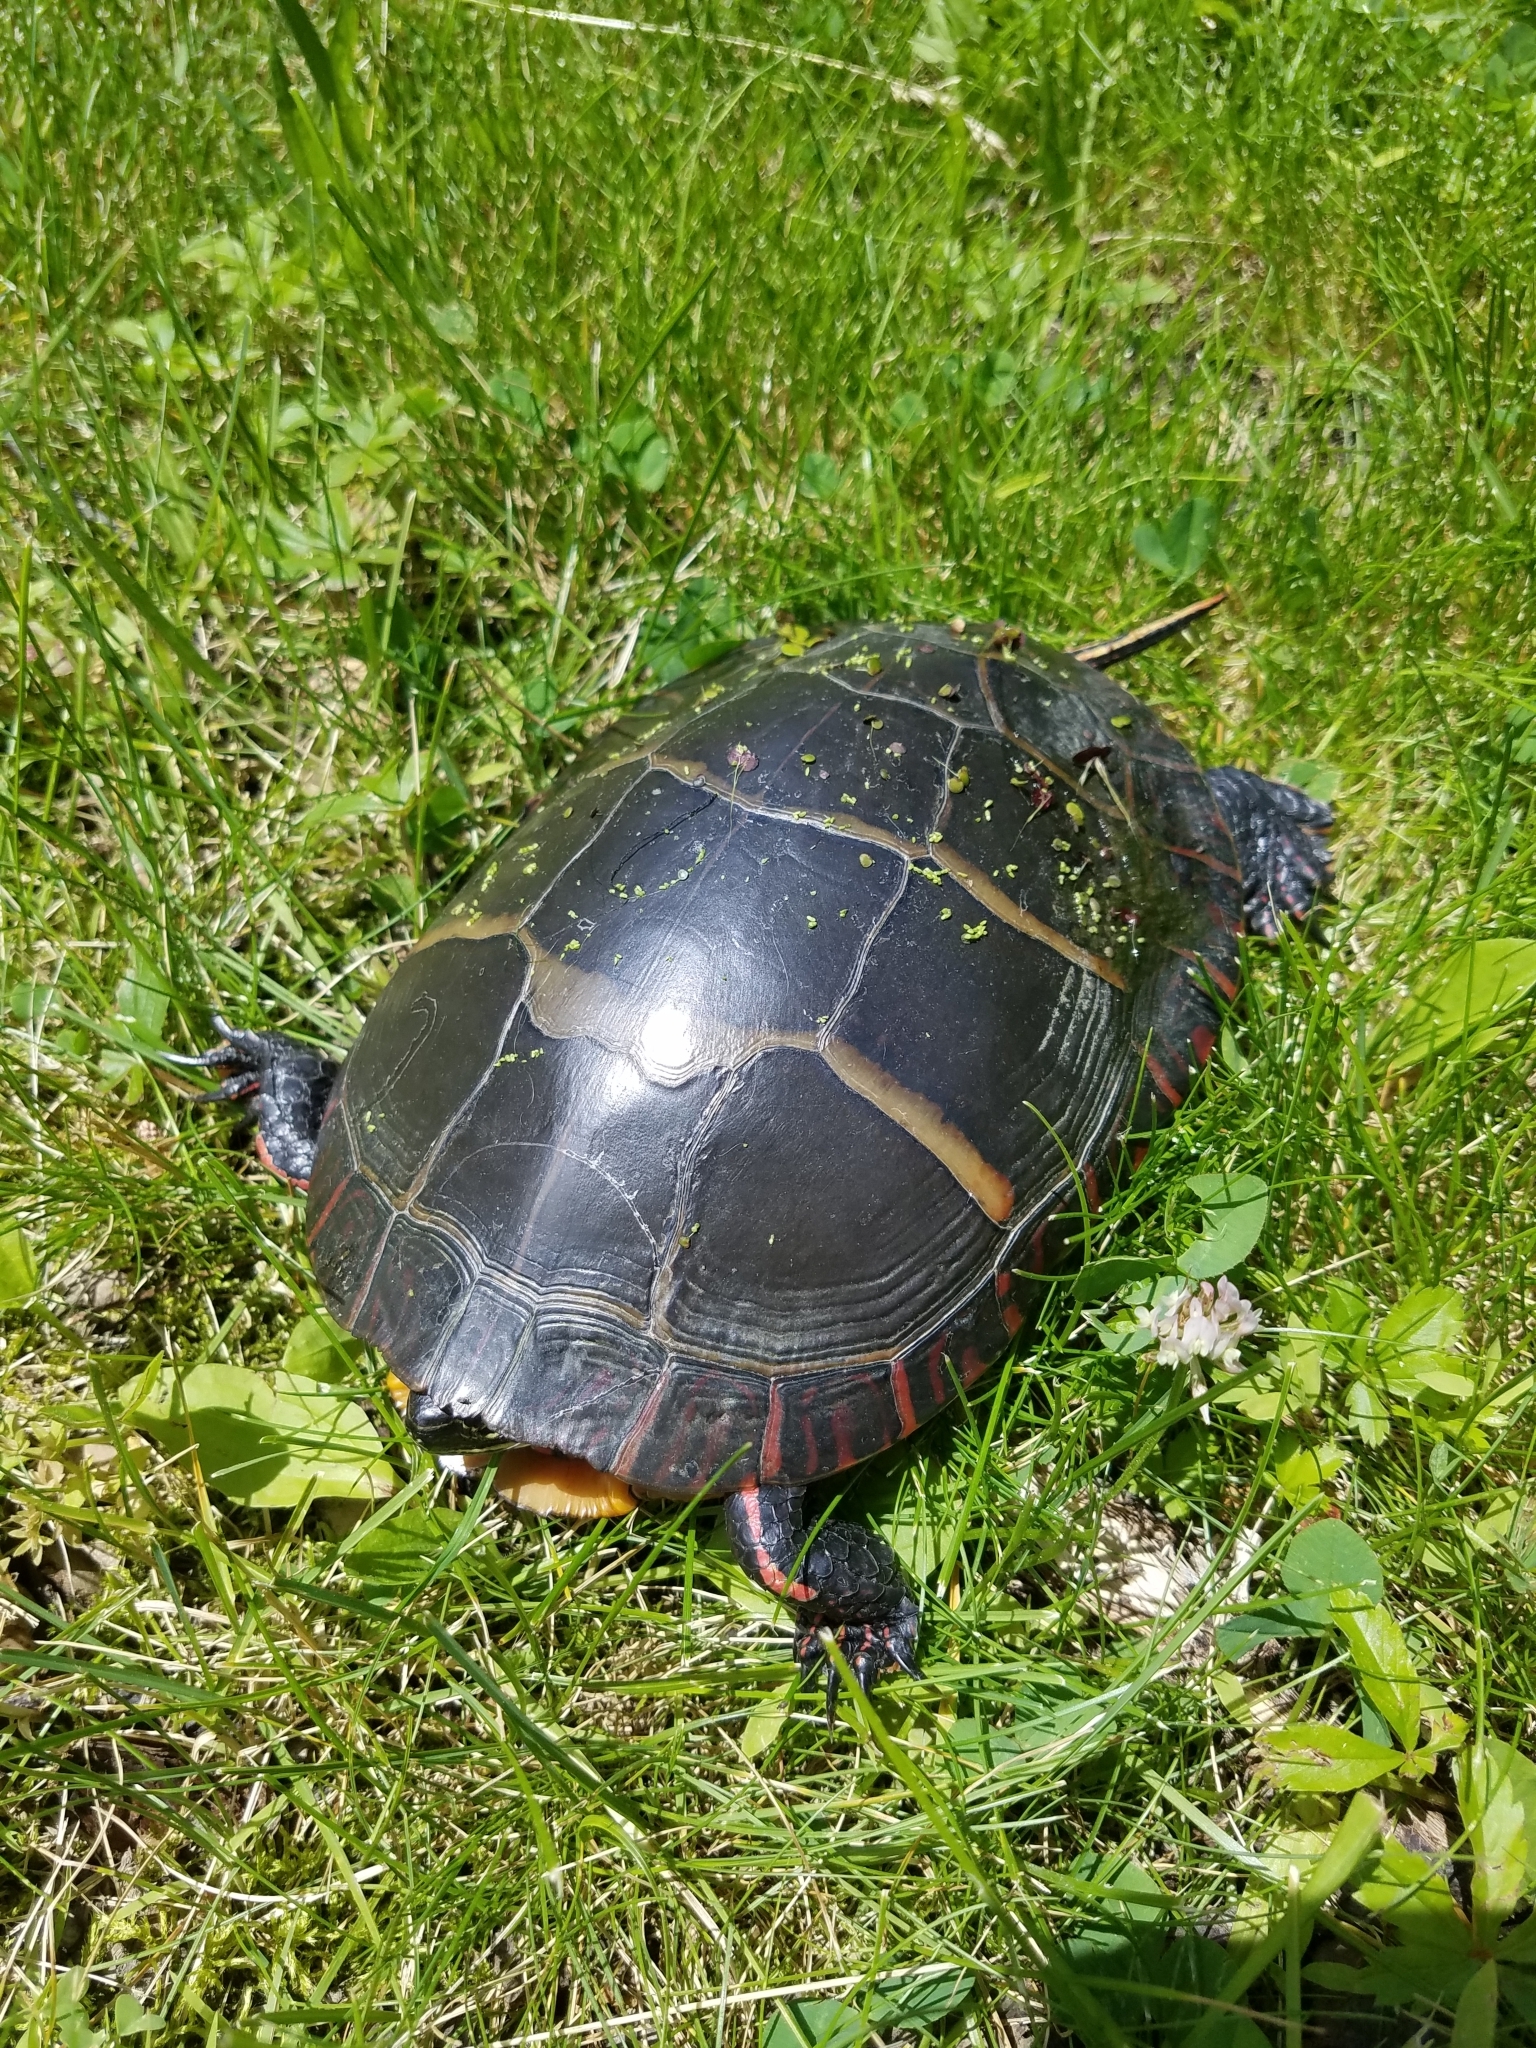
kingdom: Animalia
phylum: Chordata
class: Testudines
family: Emydidae
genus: Chrysemys
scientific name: Chrysemys picta
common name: Painted turtle
